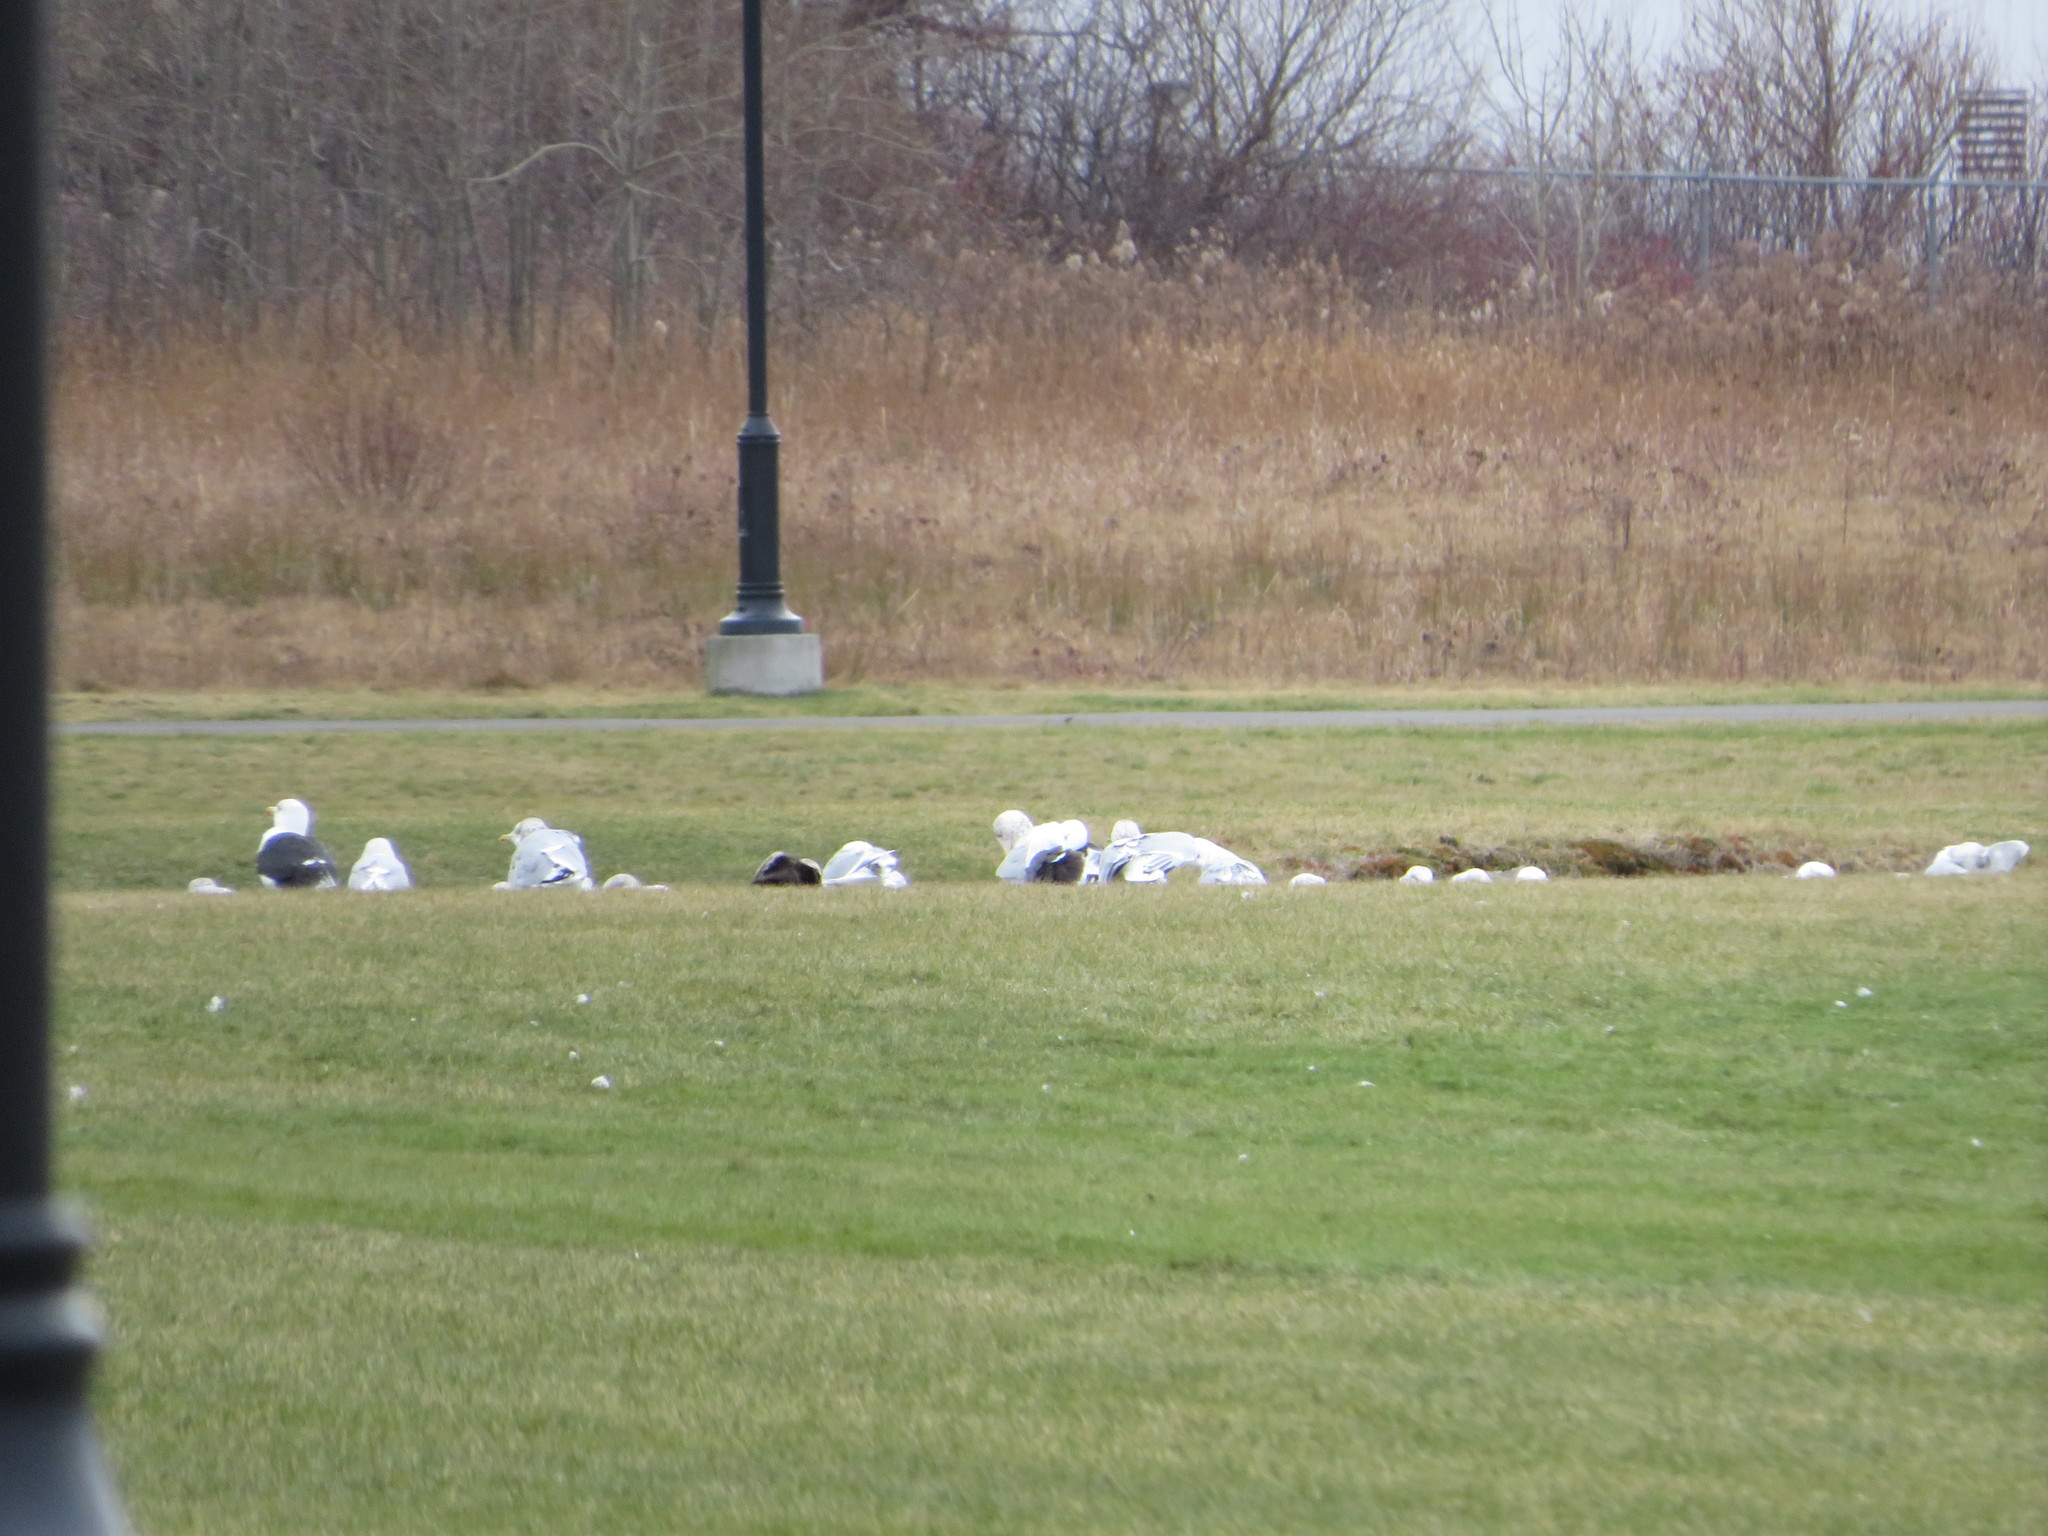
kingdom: Animalia
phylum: Chordata
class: Aves
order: Charadriiformes
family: Laridae
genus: Larus
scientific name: Larus argentatus
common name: Herring gull
